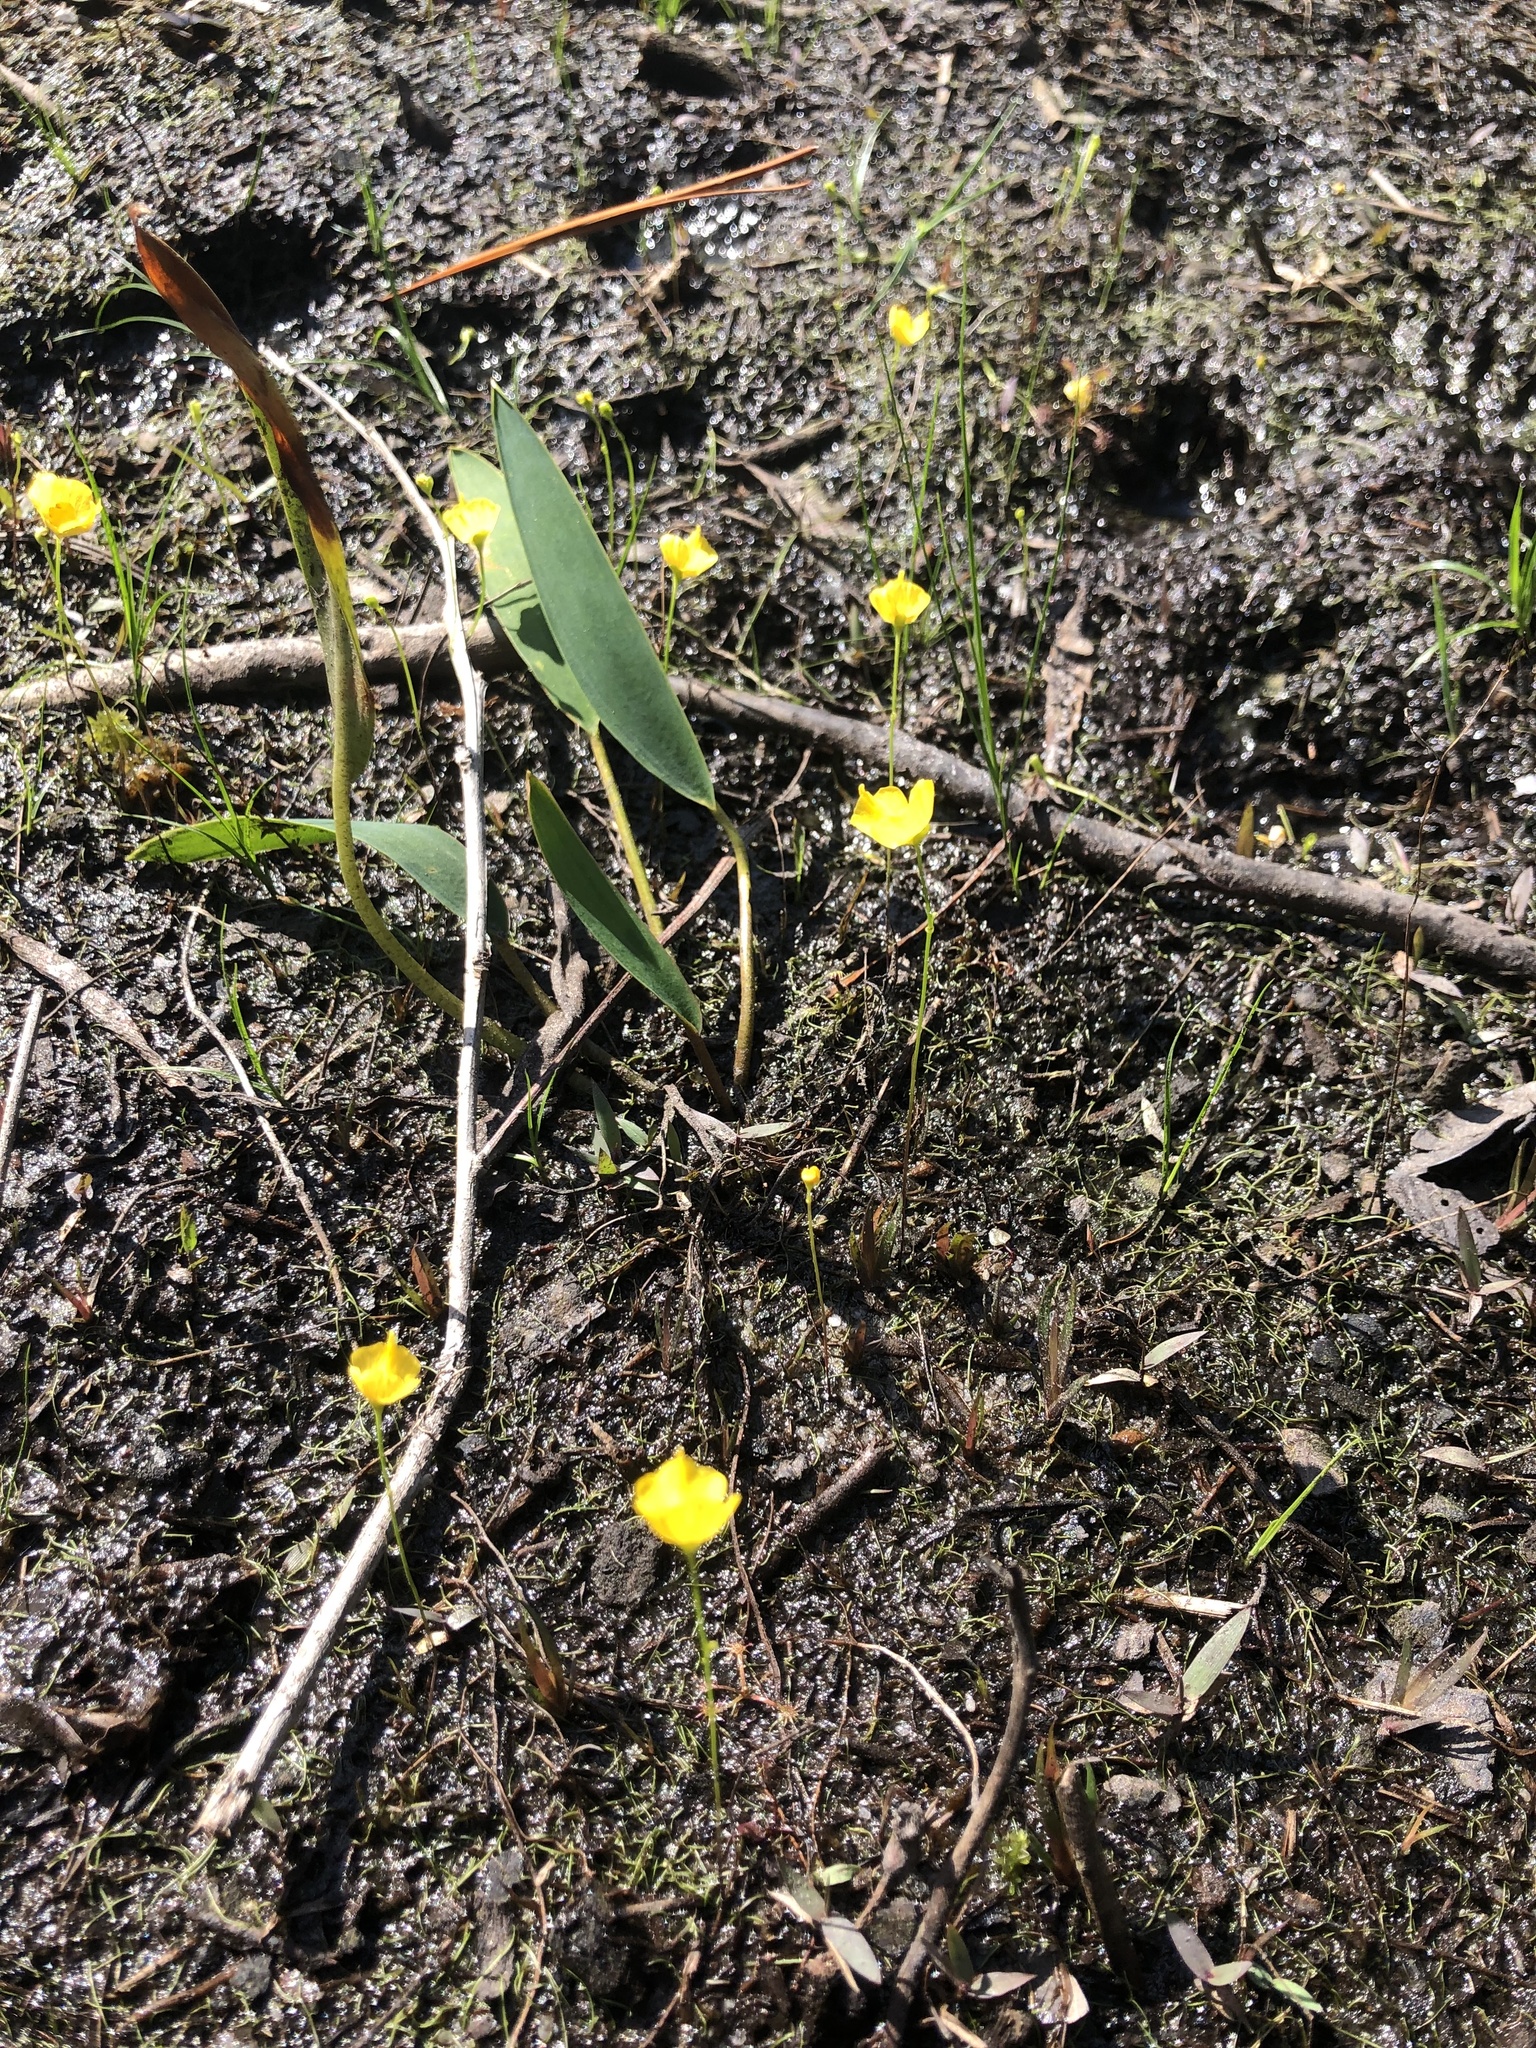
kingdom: Plantae
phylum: Tracheophyta
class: Magnoliopsida
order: Lamiales
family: Lentibulariaceae
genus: Utricularia
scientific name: Utricularia gibba
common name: Humped bladderwort
